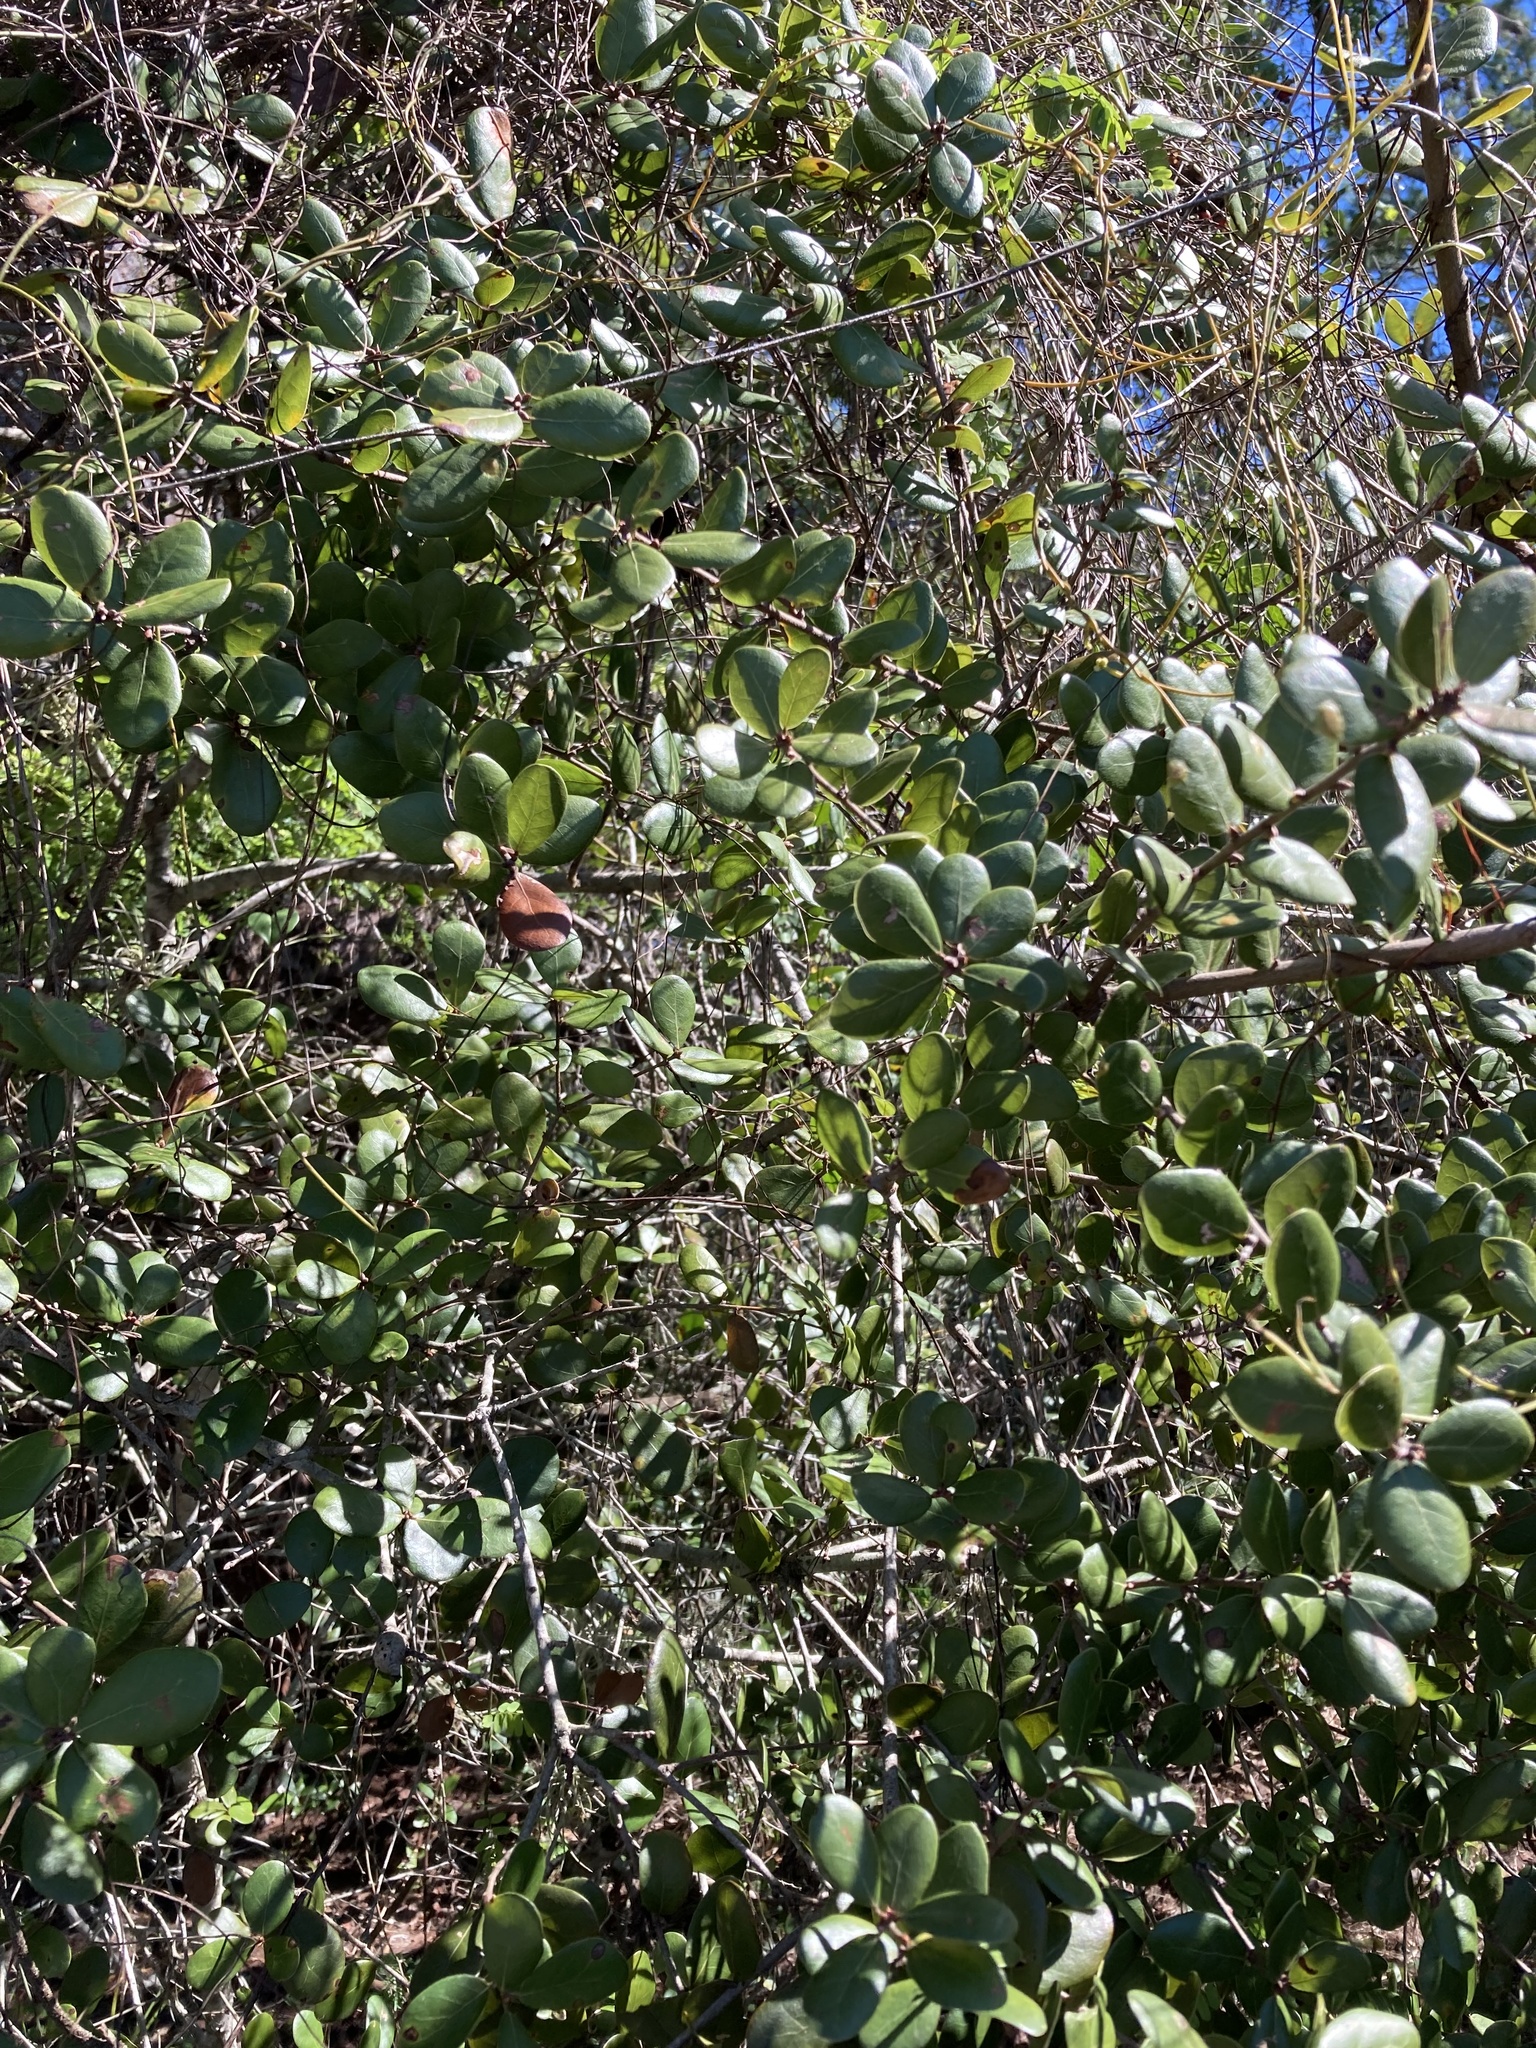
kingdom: Plantae
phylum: Tracheophyta
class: Magnoliopsida
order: Fagales
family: Fagaceae
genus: Quercus
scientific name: Quercus myrtifolia
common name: Myrtle oak
